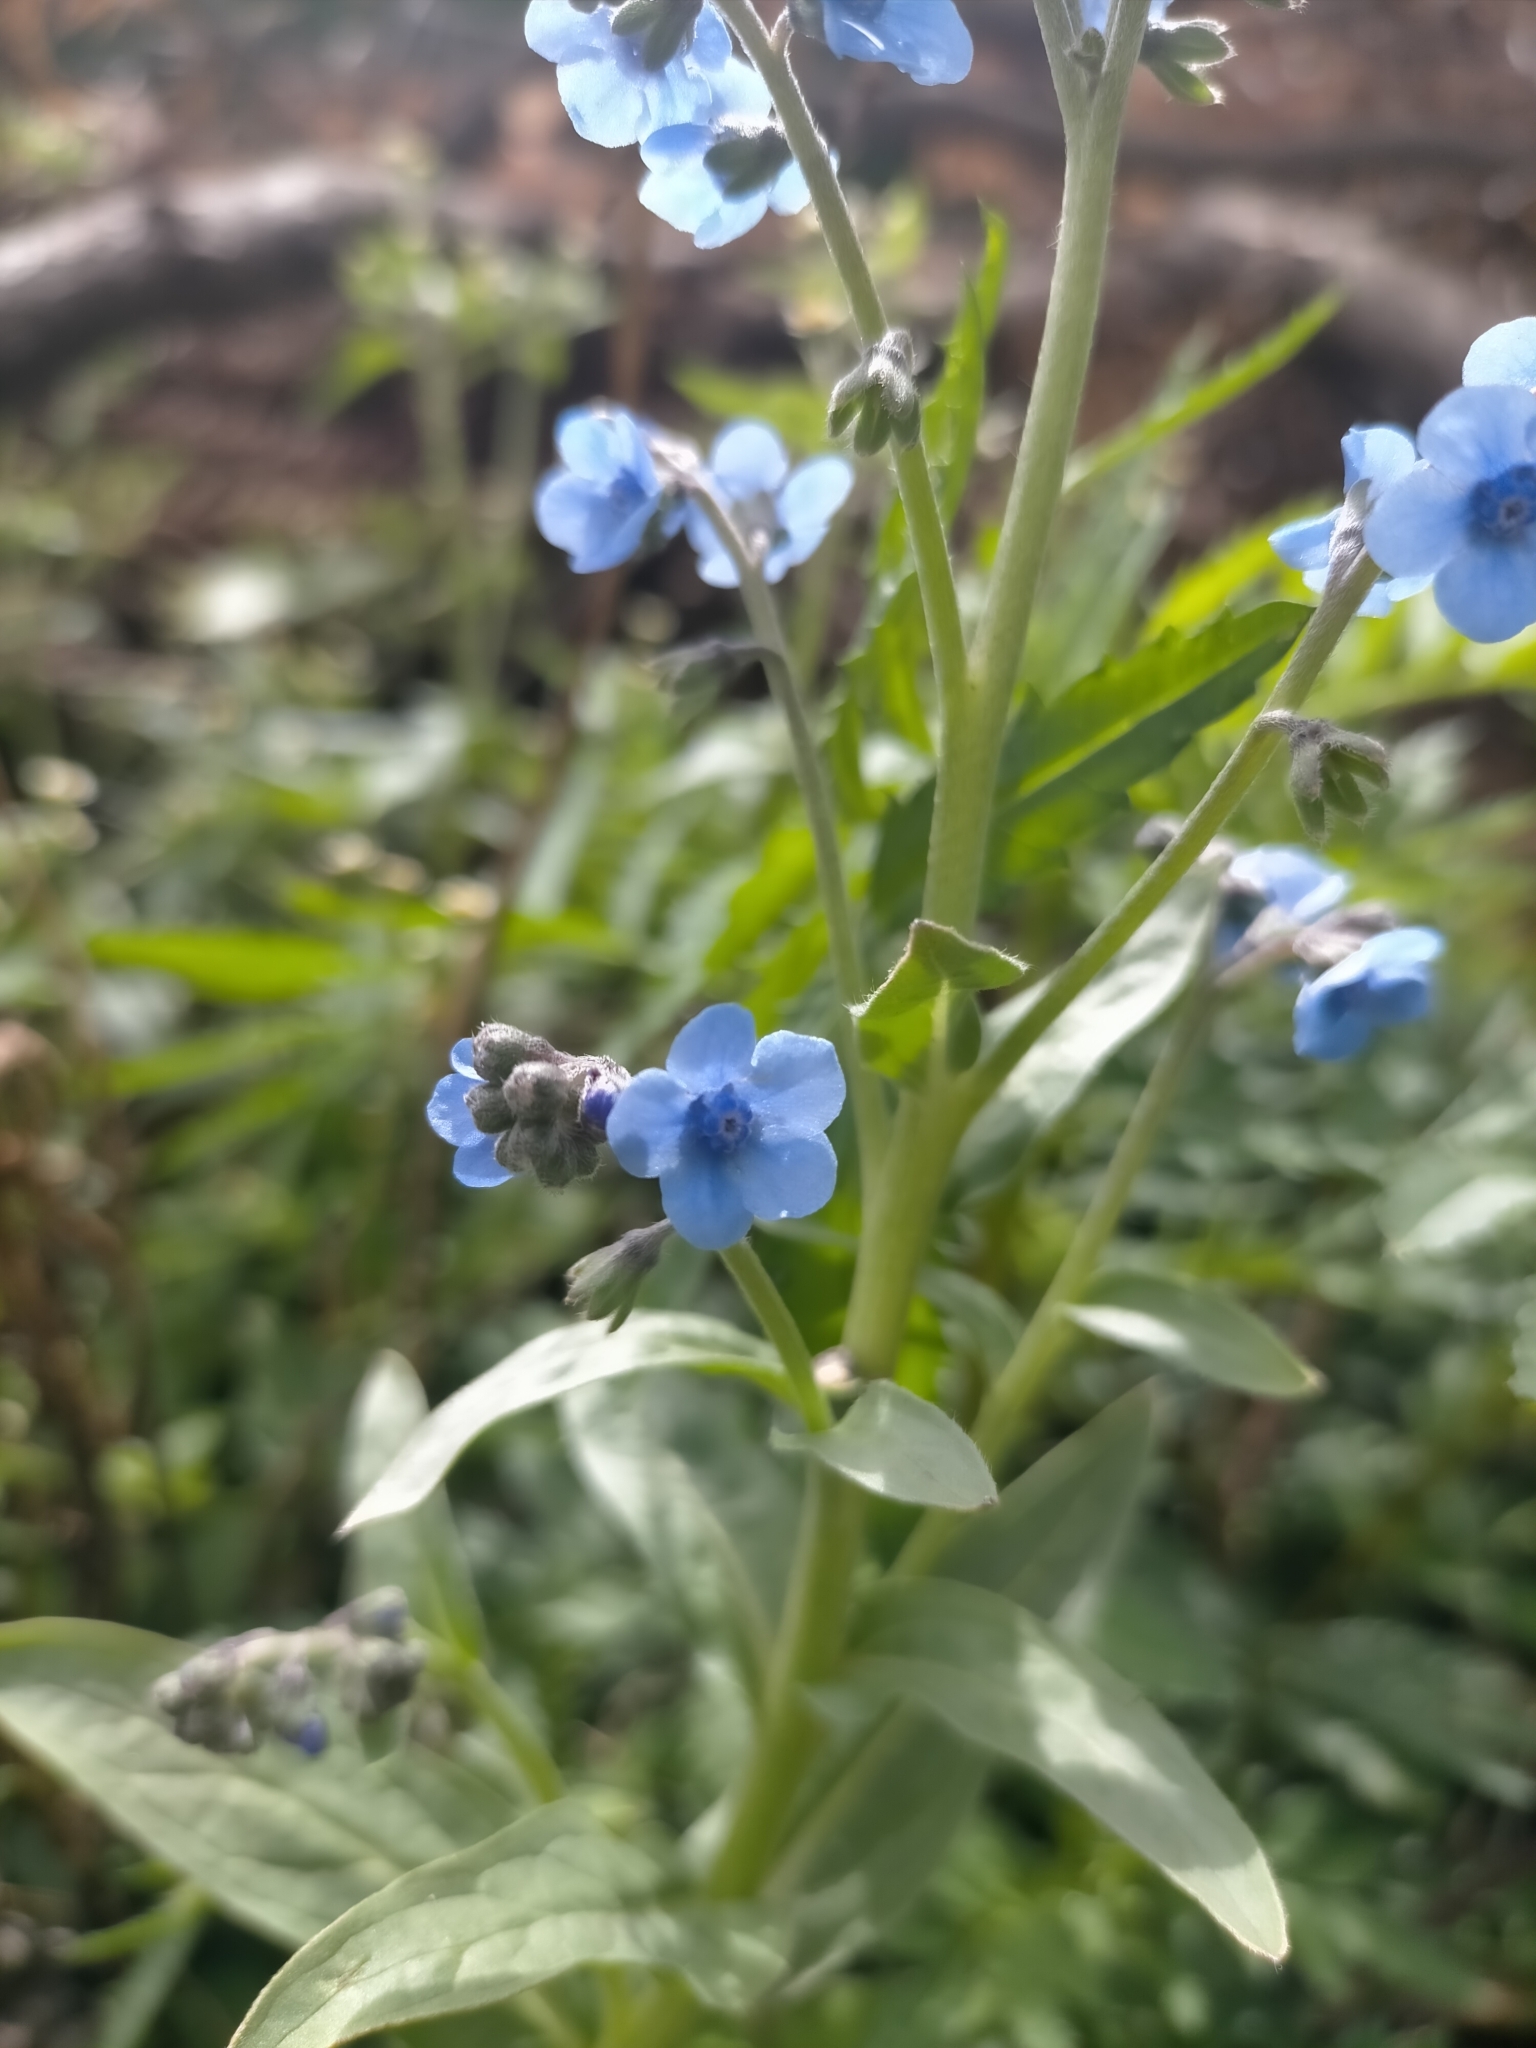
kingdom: Plantae
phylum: Tracheophyta
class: Magnoliopsida
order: Boraginales
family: Boraginaceae
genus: Cynoglossum
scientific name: Cynoglossum amabile
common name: Chinese hound's tongue
